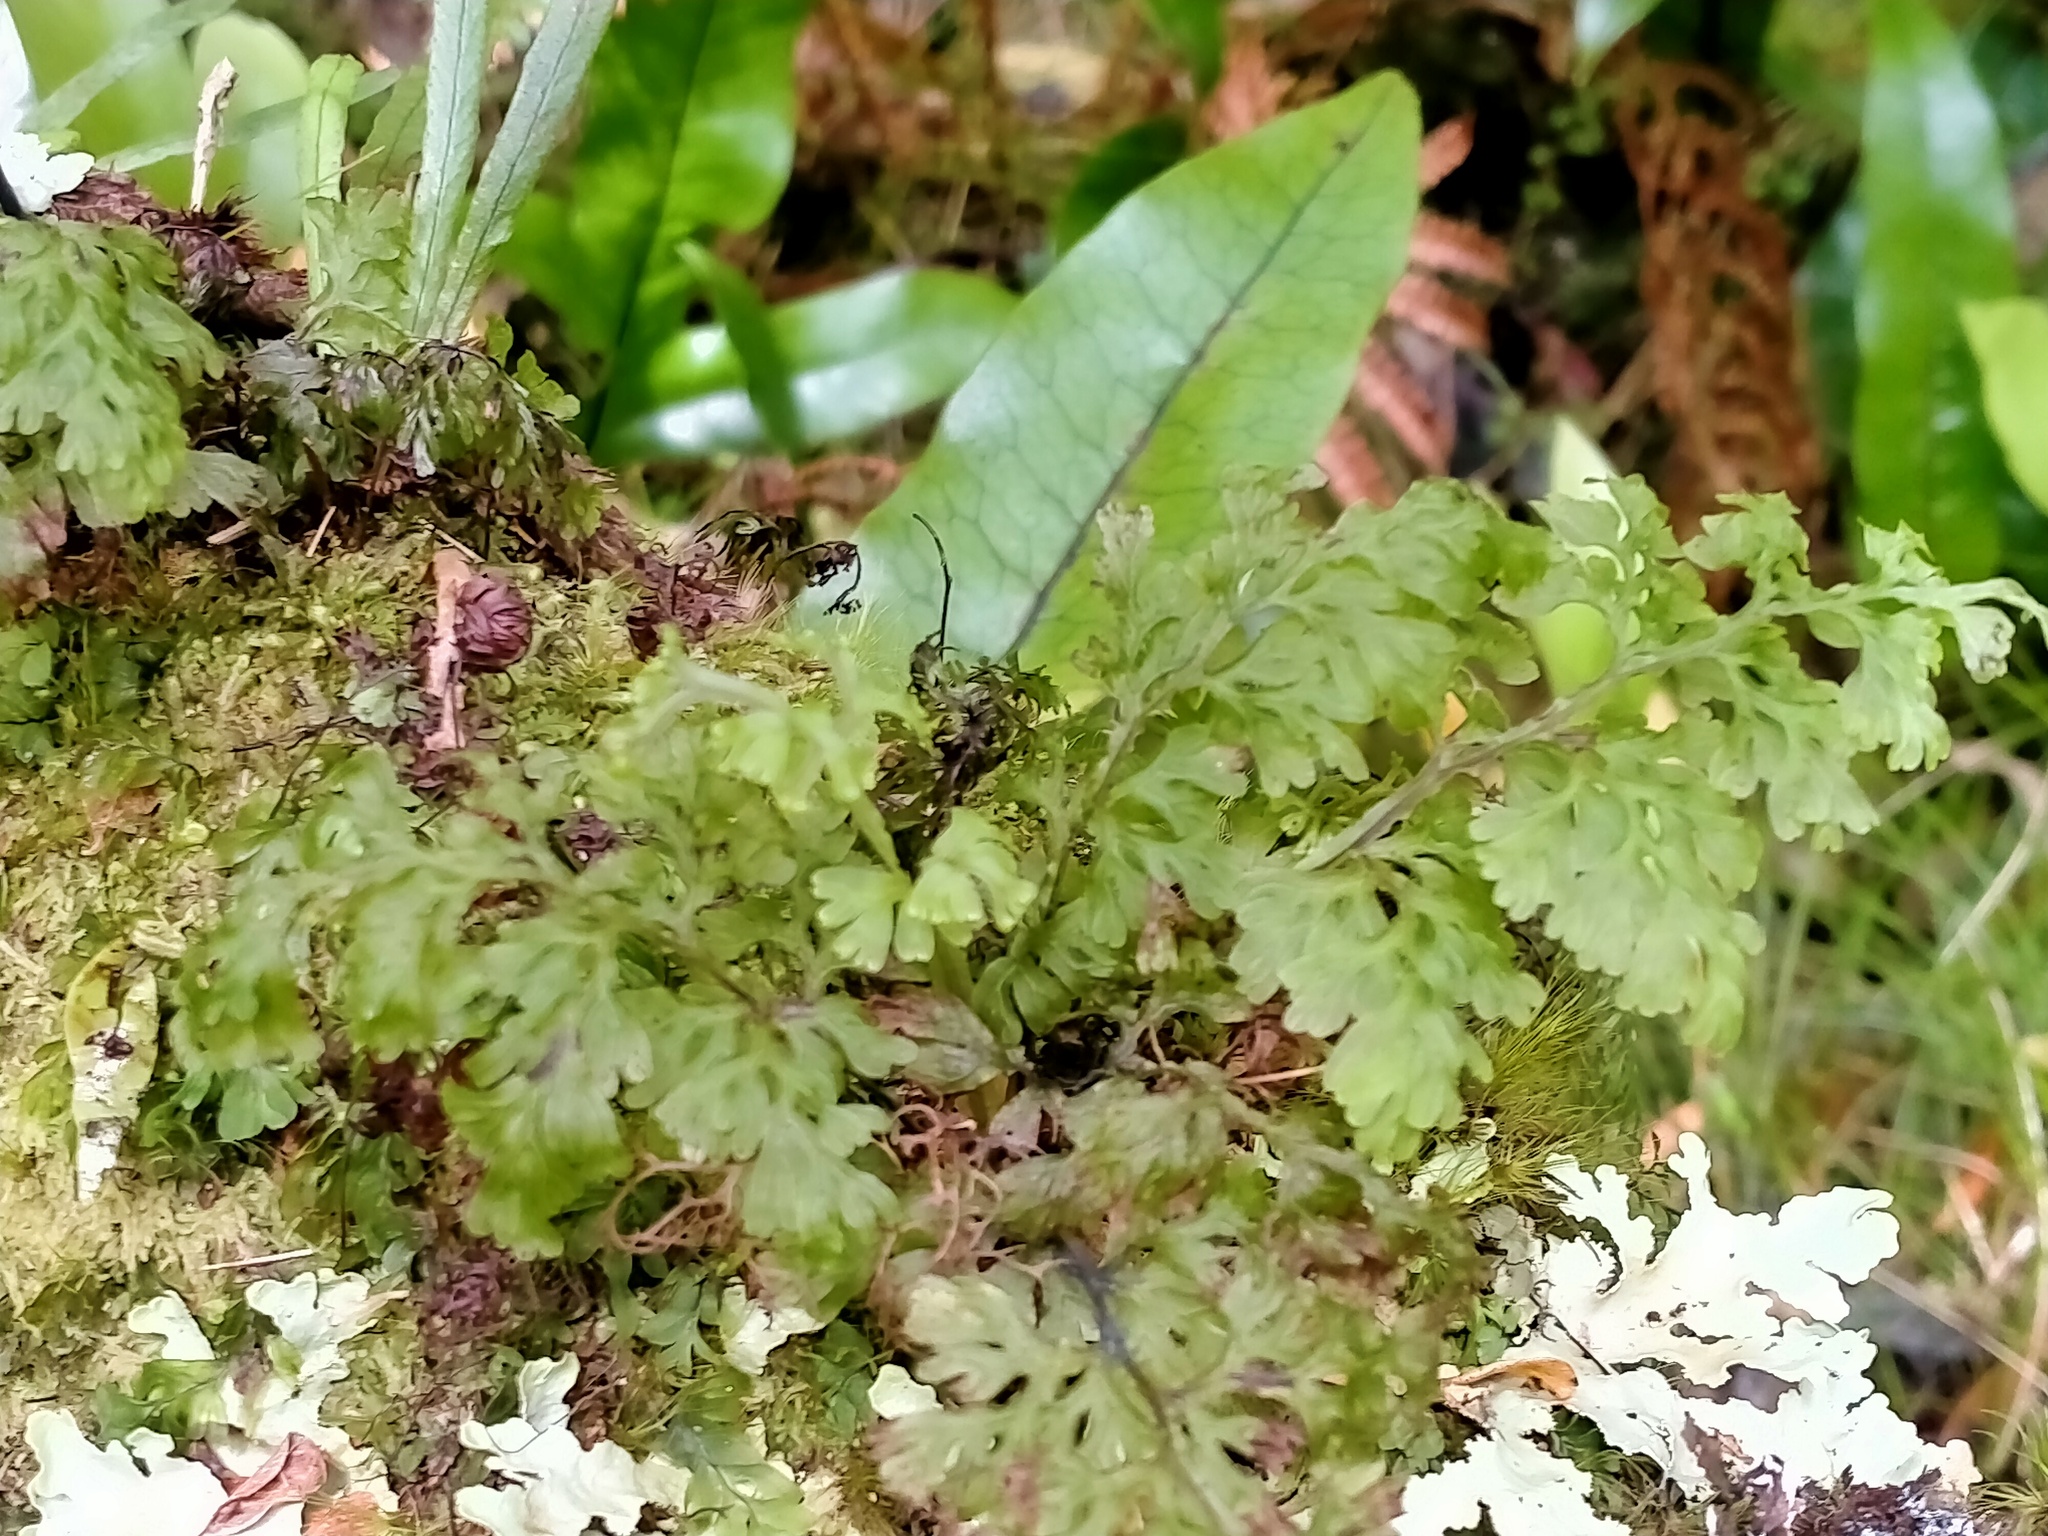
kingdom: Plantae
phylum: Tracheophyta
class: Polypodiopsida
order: Hymenophyllales
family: Hymenophyllaceae
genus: Hymenophyllum
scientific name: Hymenophyllum pulcherrimum
